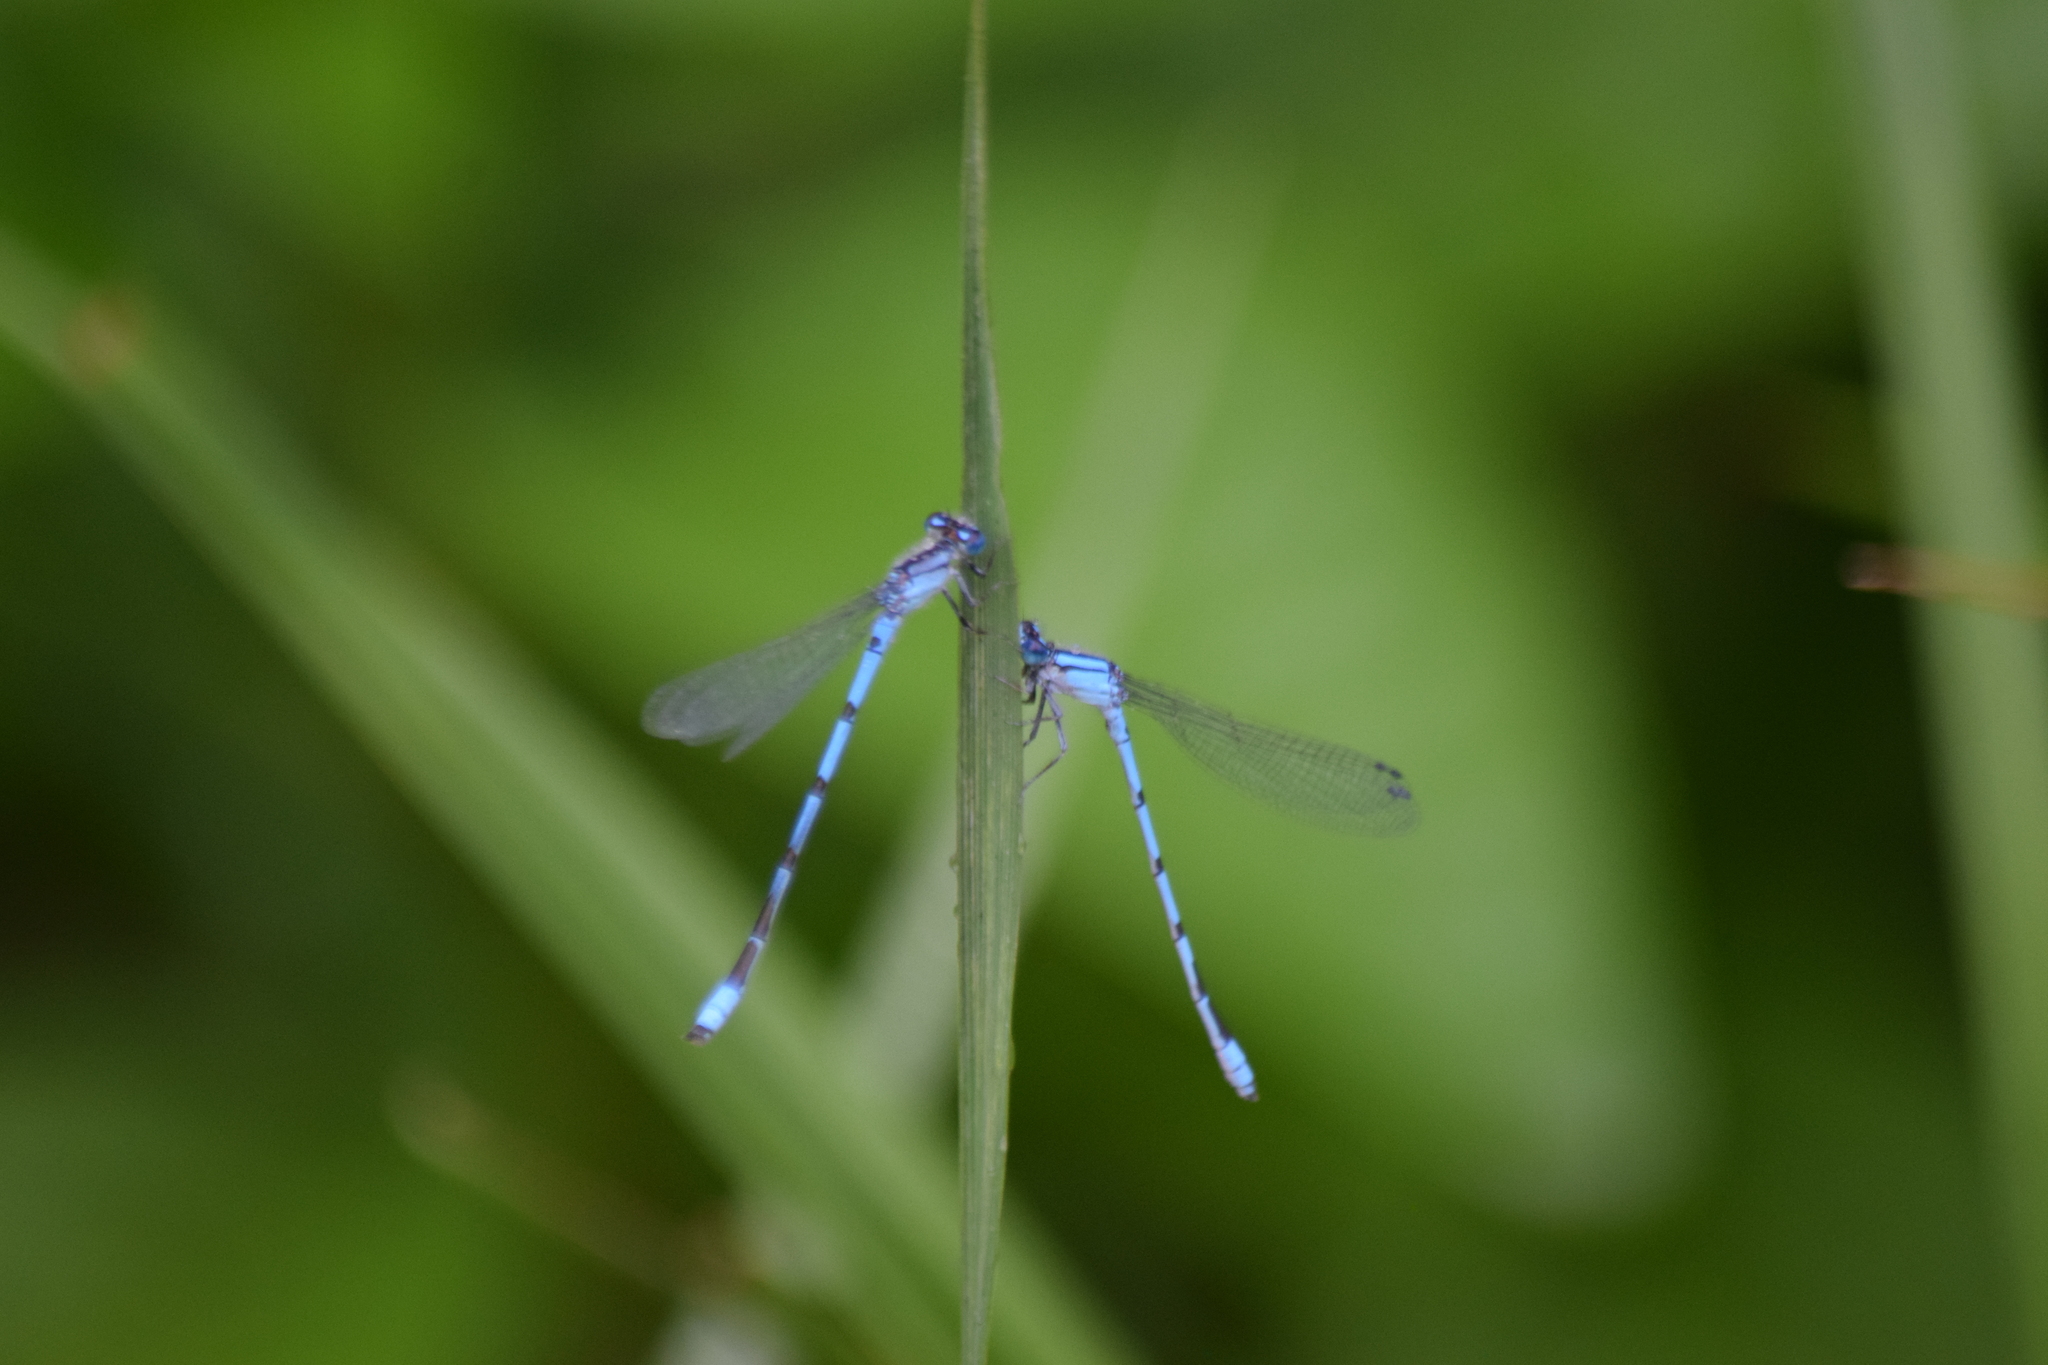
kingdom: Animalia
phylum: Arthropoda
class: Insecta
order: Odonata
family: Coenagrionidae
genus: Enallagma
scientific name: Enallagma civile
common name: Damselfly
